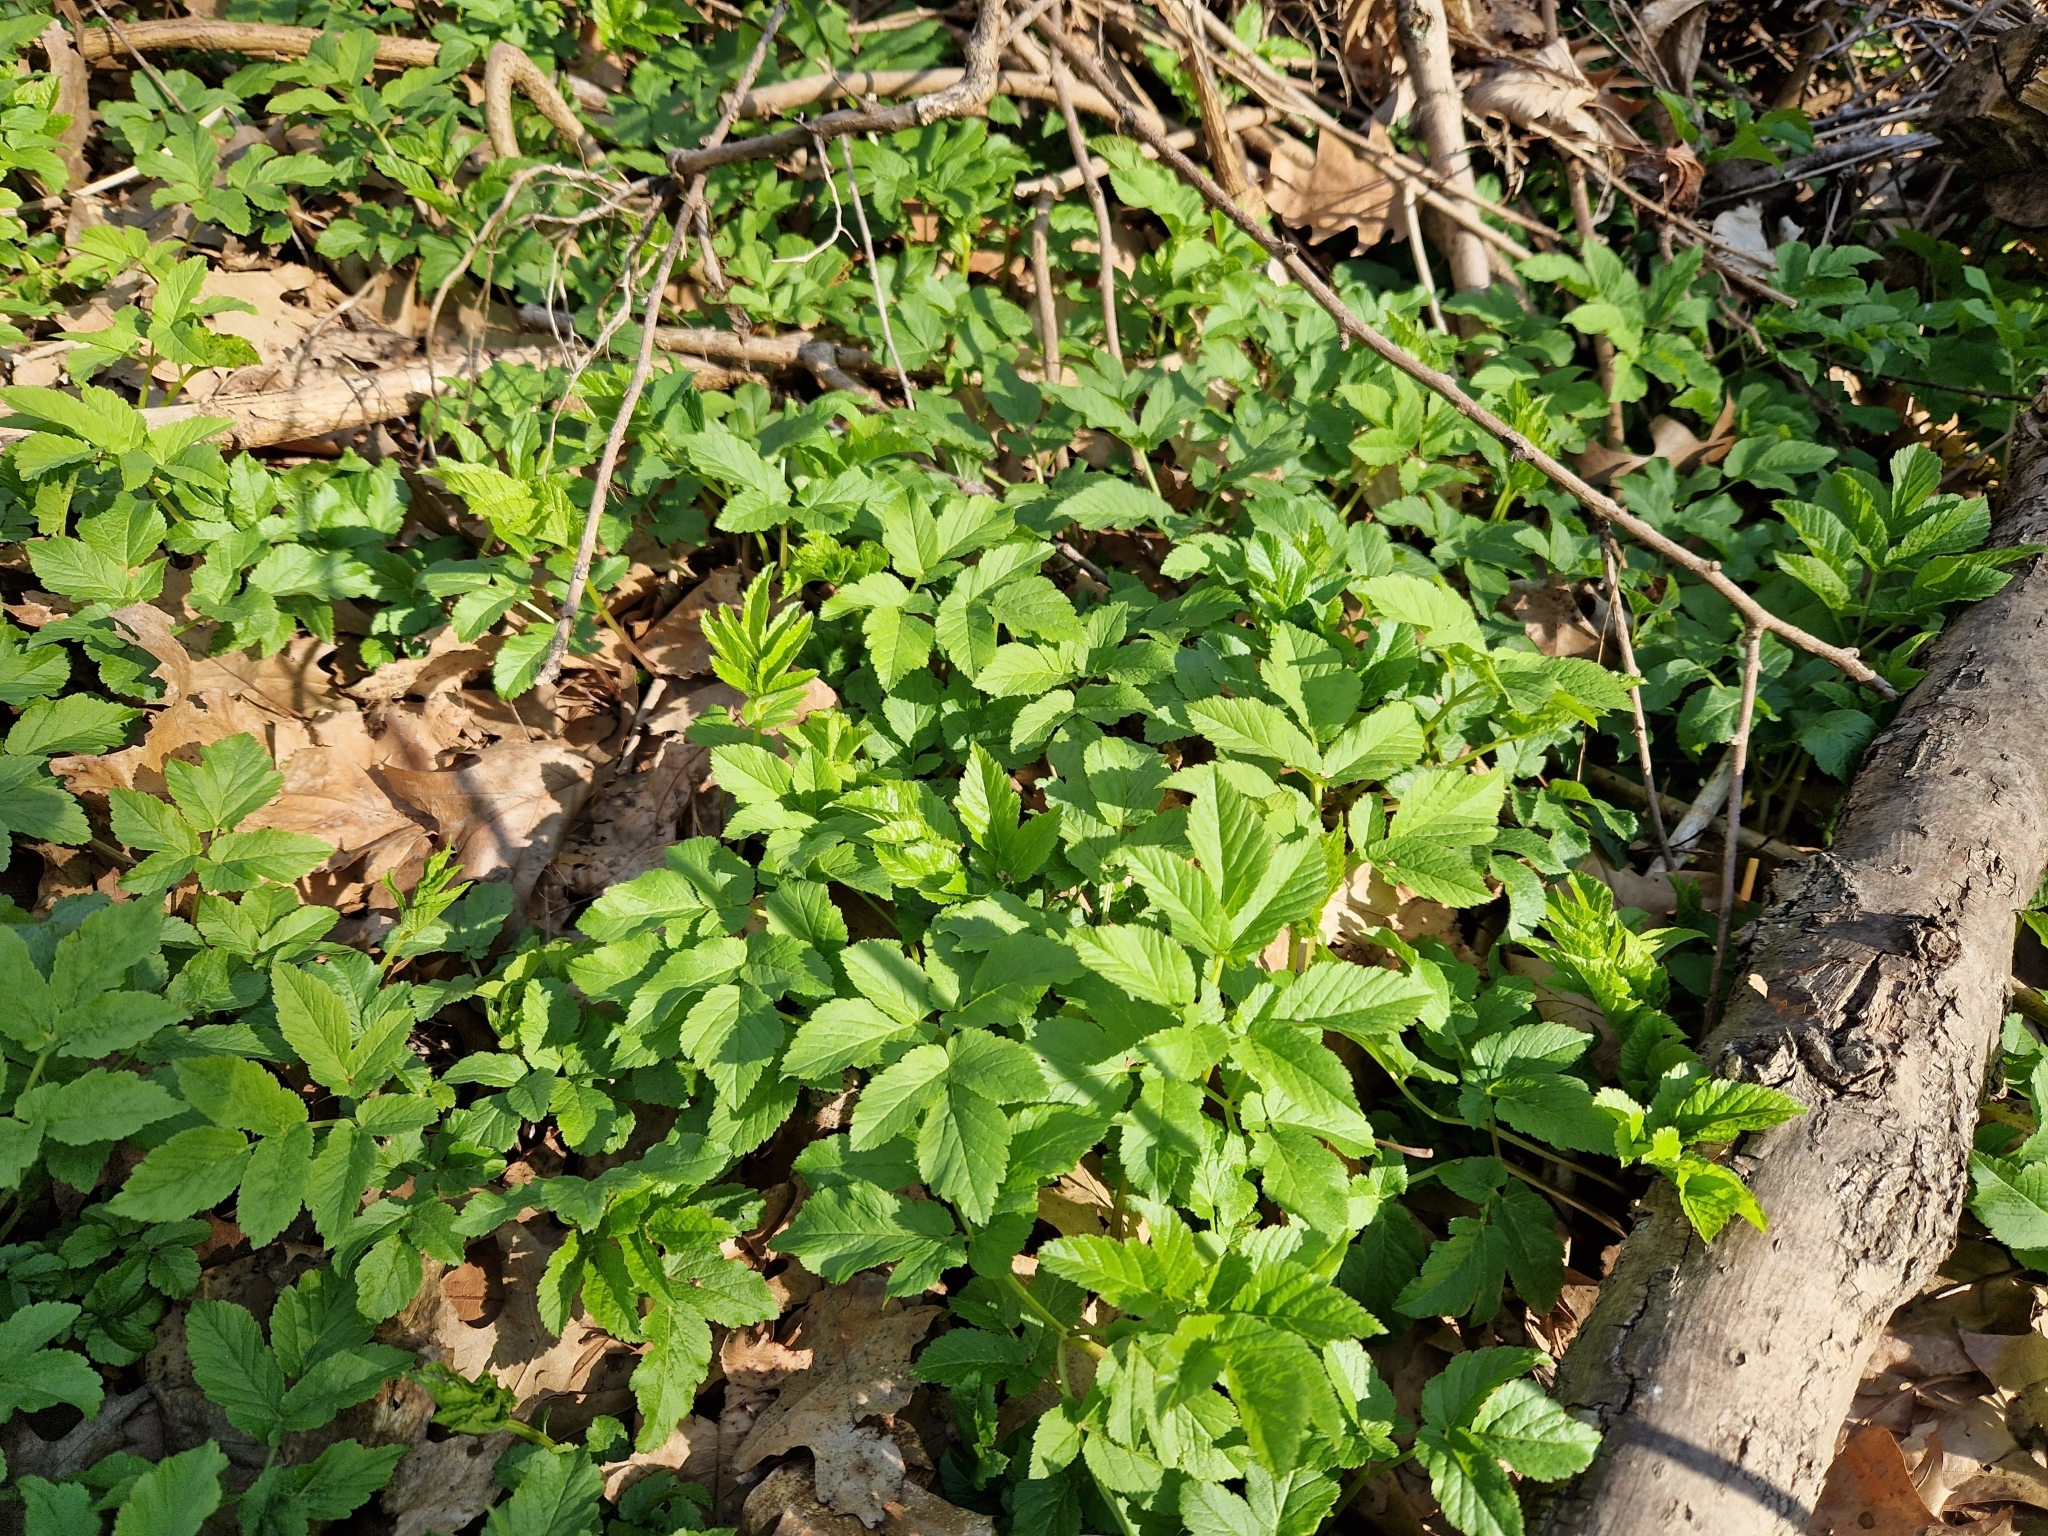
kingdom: Plantae
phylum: Tracheophyta
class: Magnoliopsida
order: Apiales
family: Apiaceae
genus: Aegopodium
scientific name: Aegopodium podagraria
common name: Ground-elder
